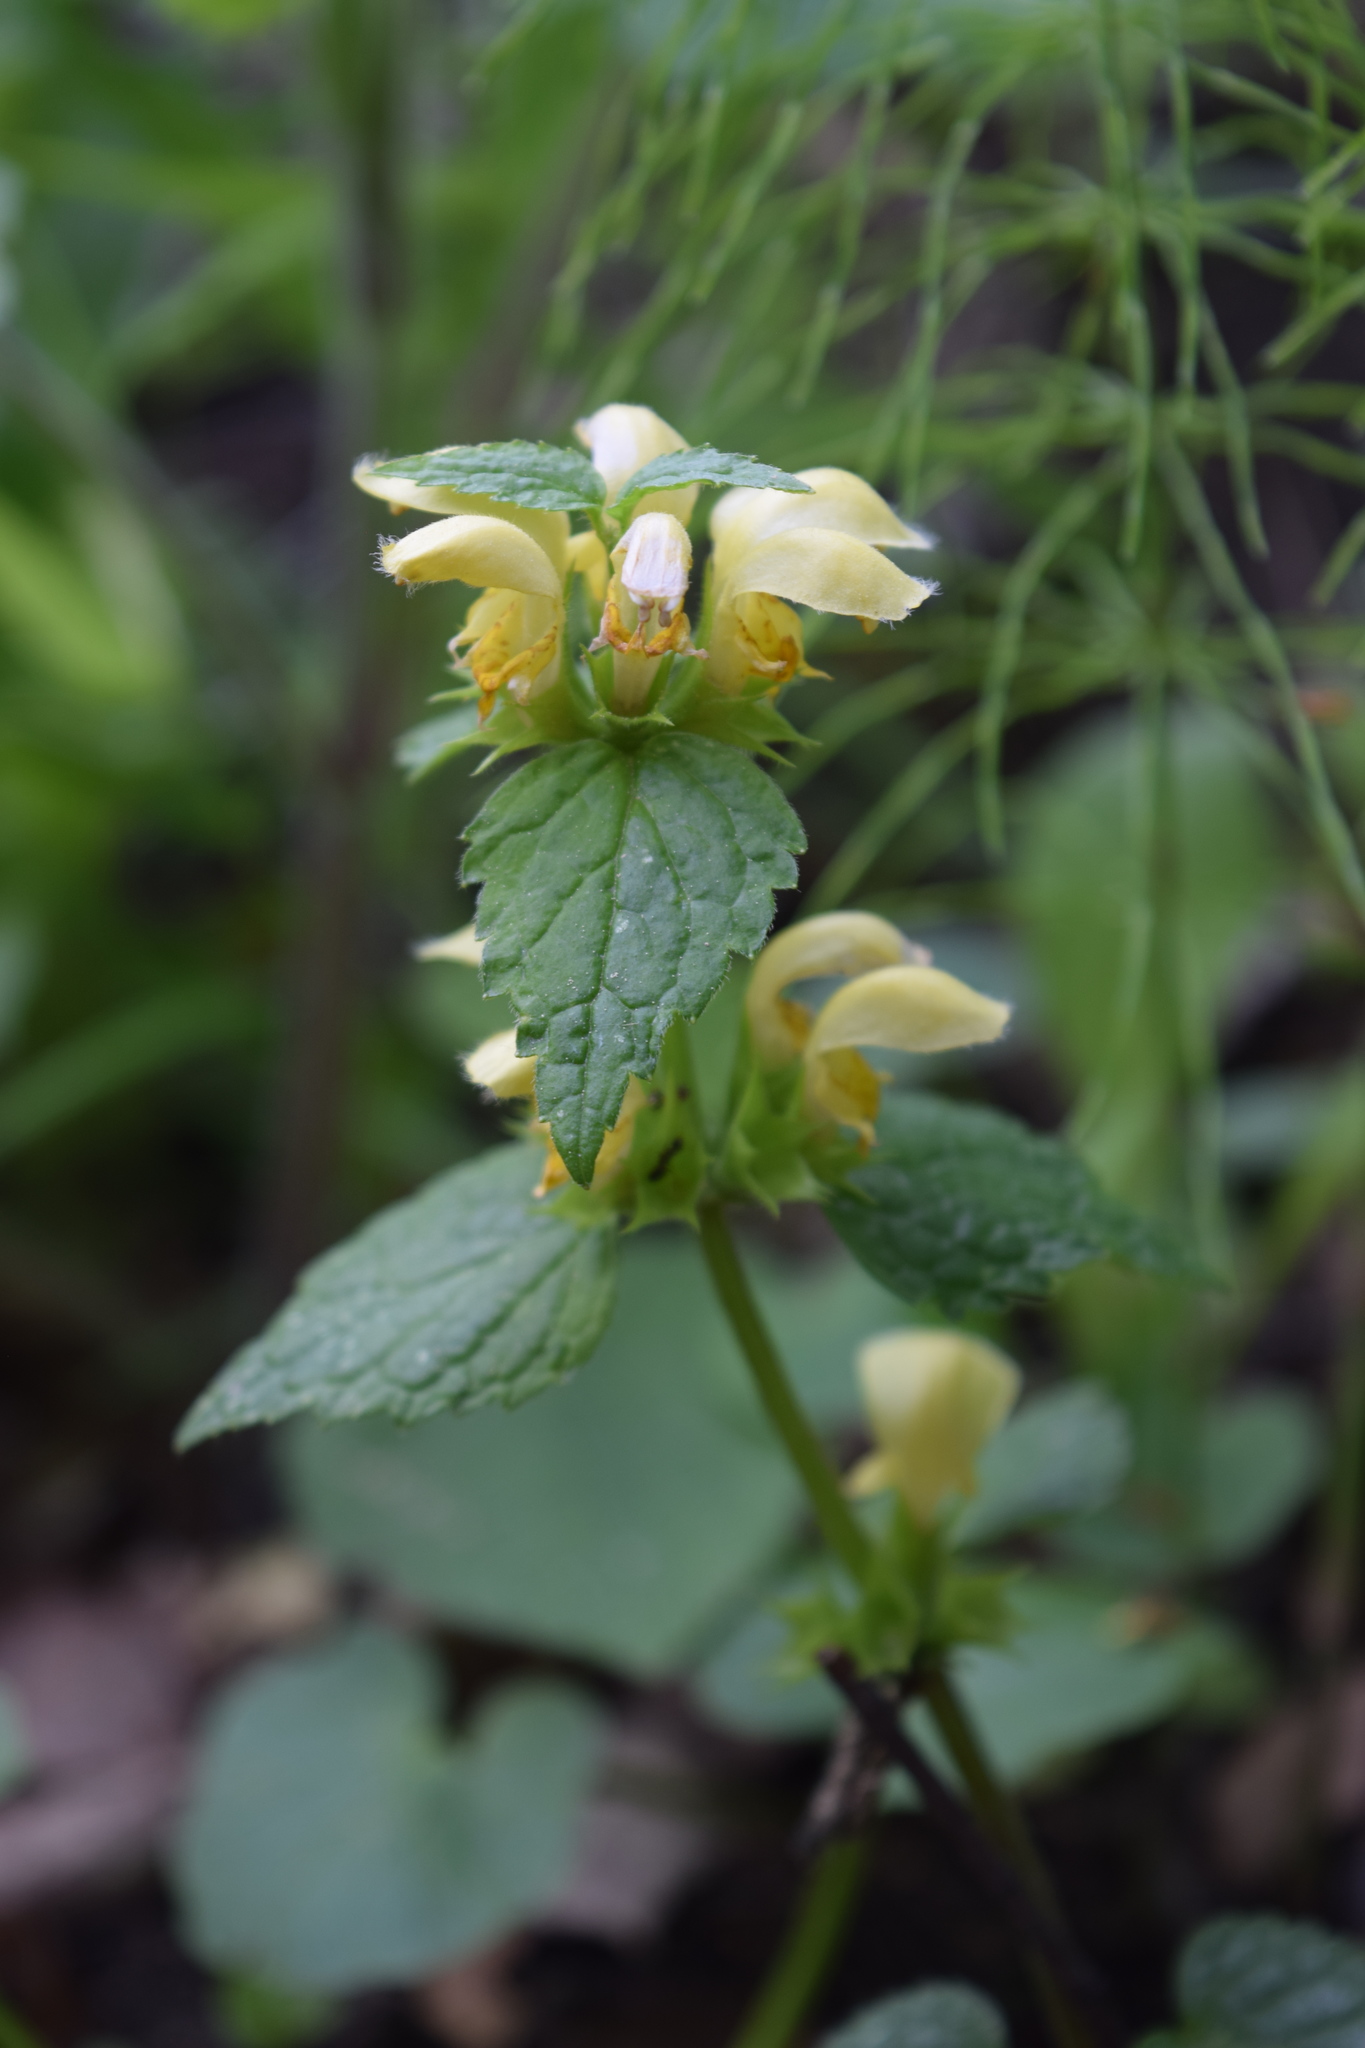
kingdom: Plantae
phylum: Tracheophyta
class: Magnoliopsida
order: Lamiales
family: Lamiaceae
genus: Lamium
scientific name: Lamium galeobdolon
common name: Yellow archangel
